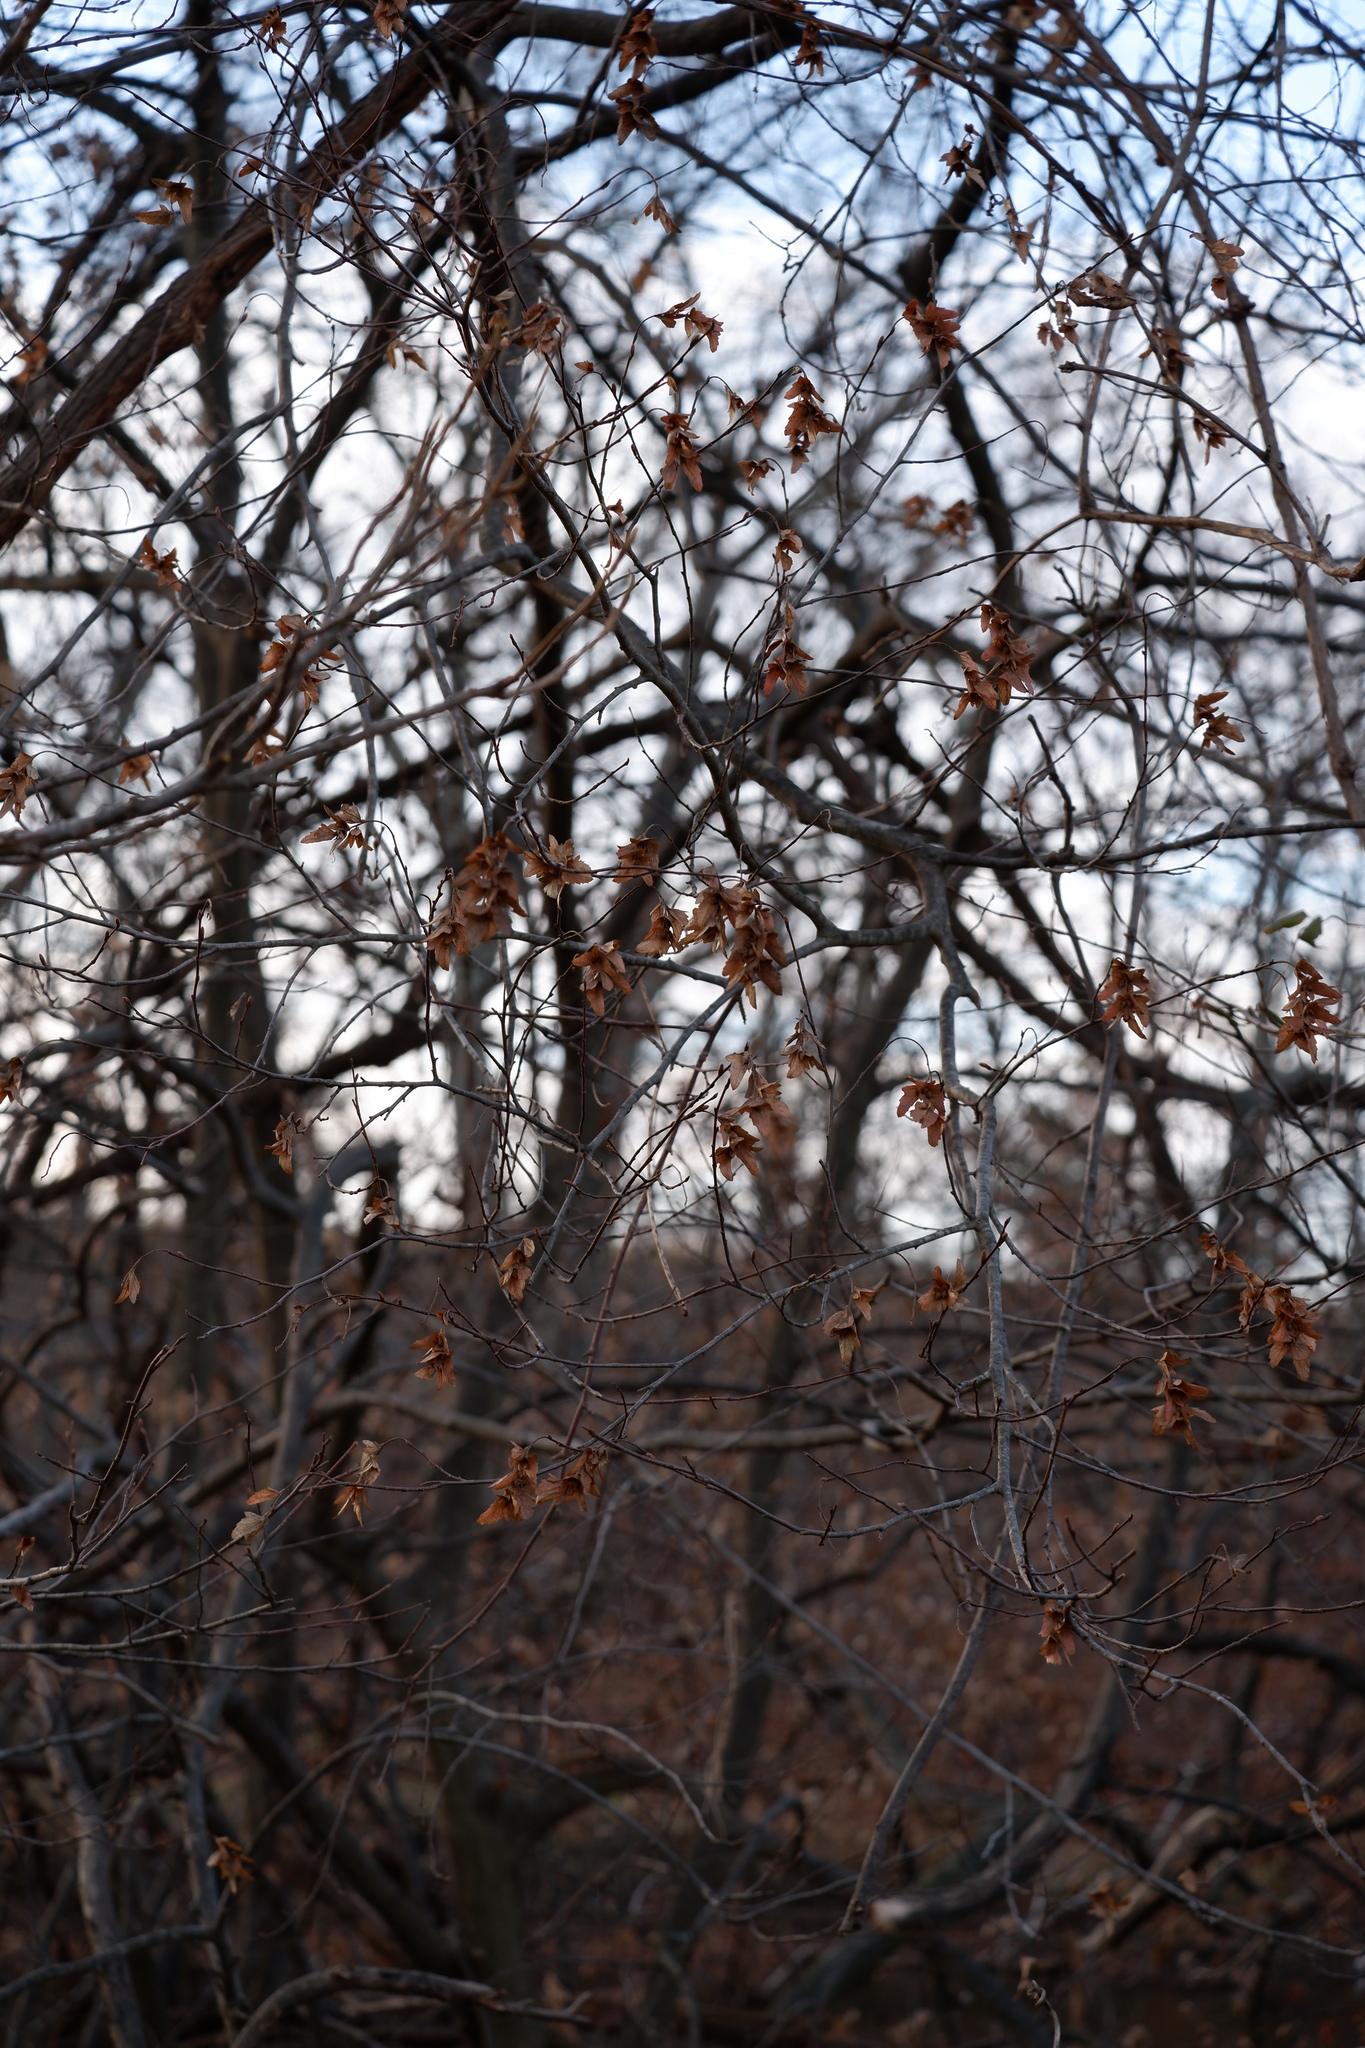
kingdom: Plantae
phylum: Tracheophyta
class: Magnoliopsida
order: Fagales
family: Betulaceae
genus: Carpinus
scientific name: Carpinus caroliniana
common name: American hornbeam
